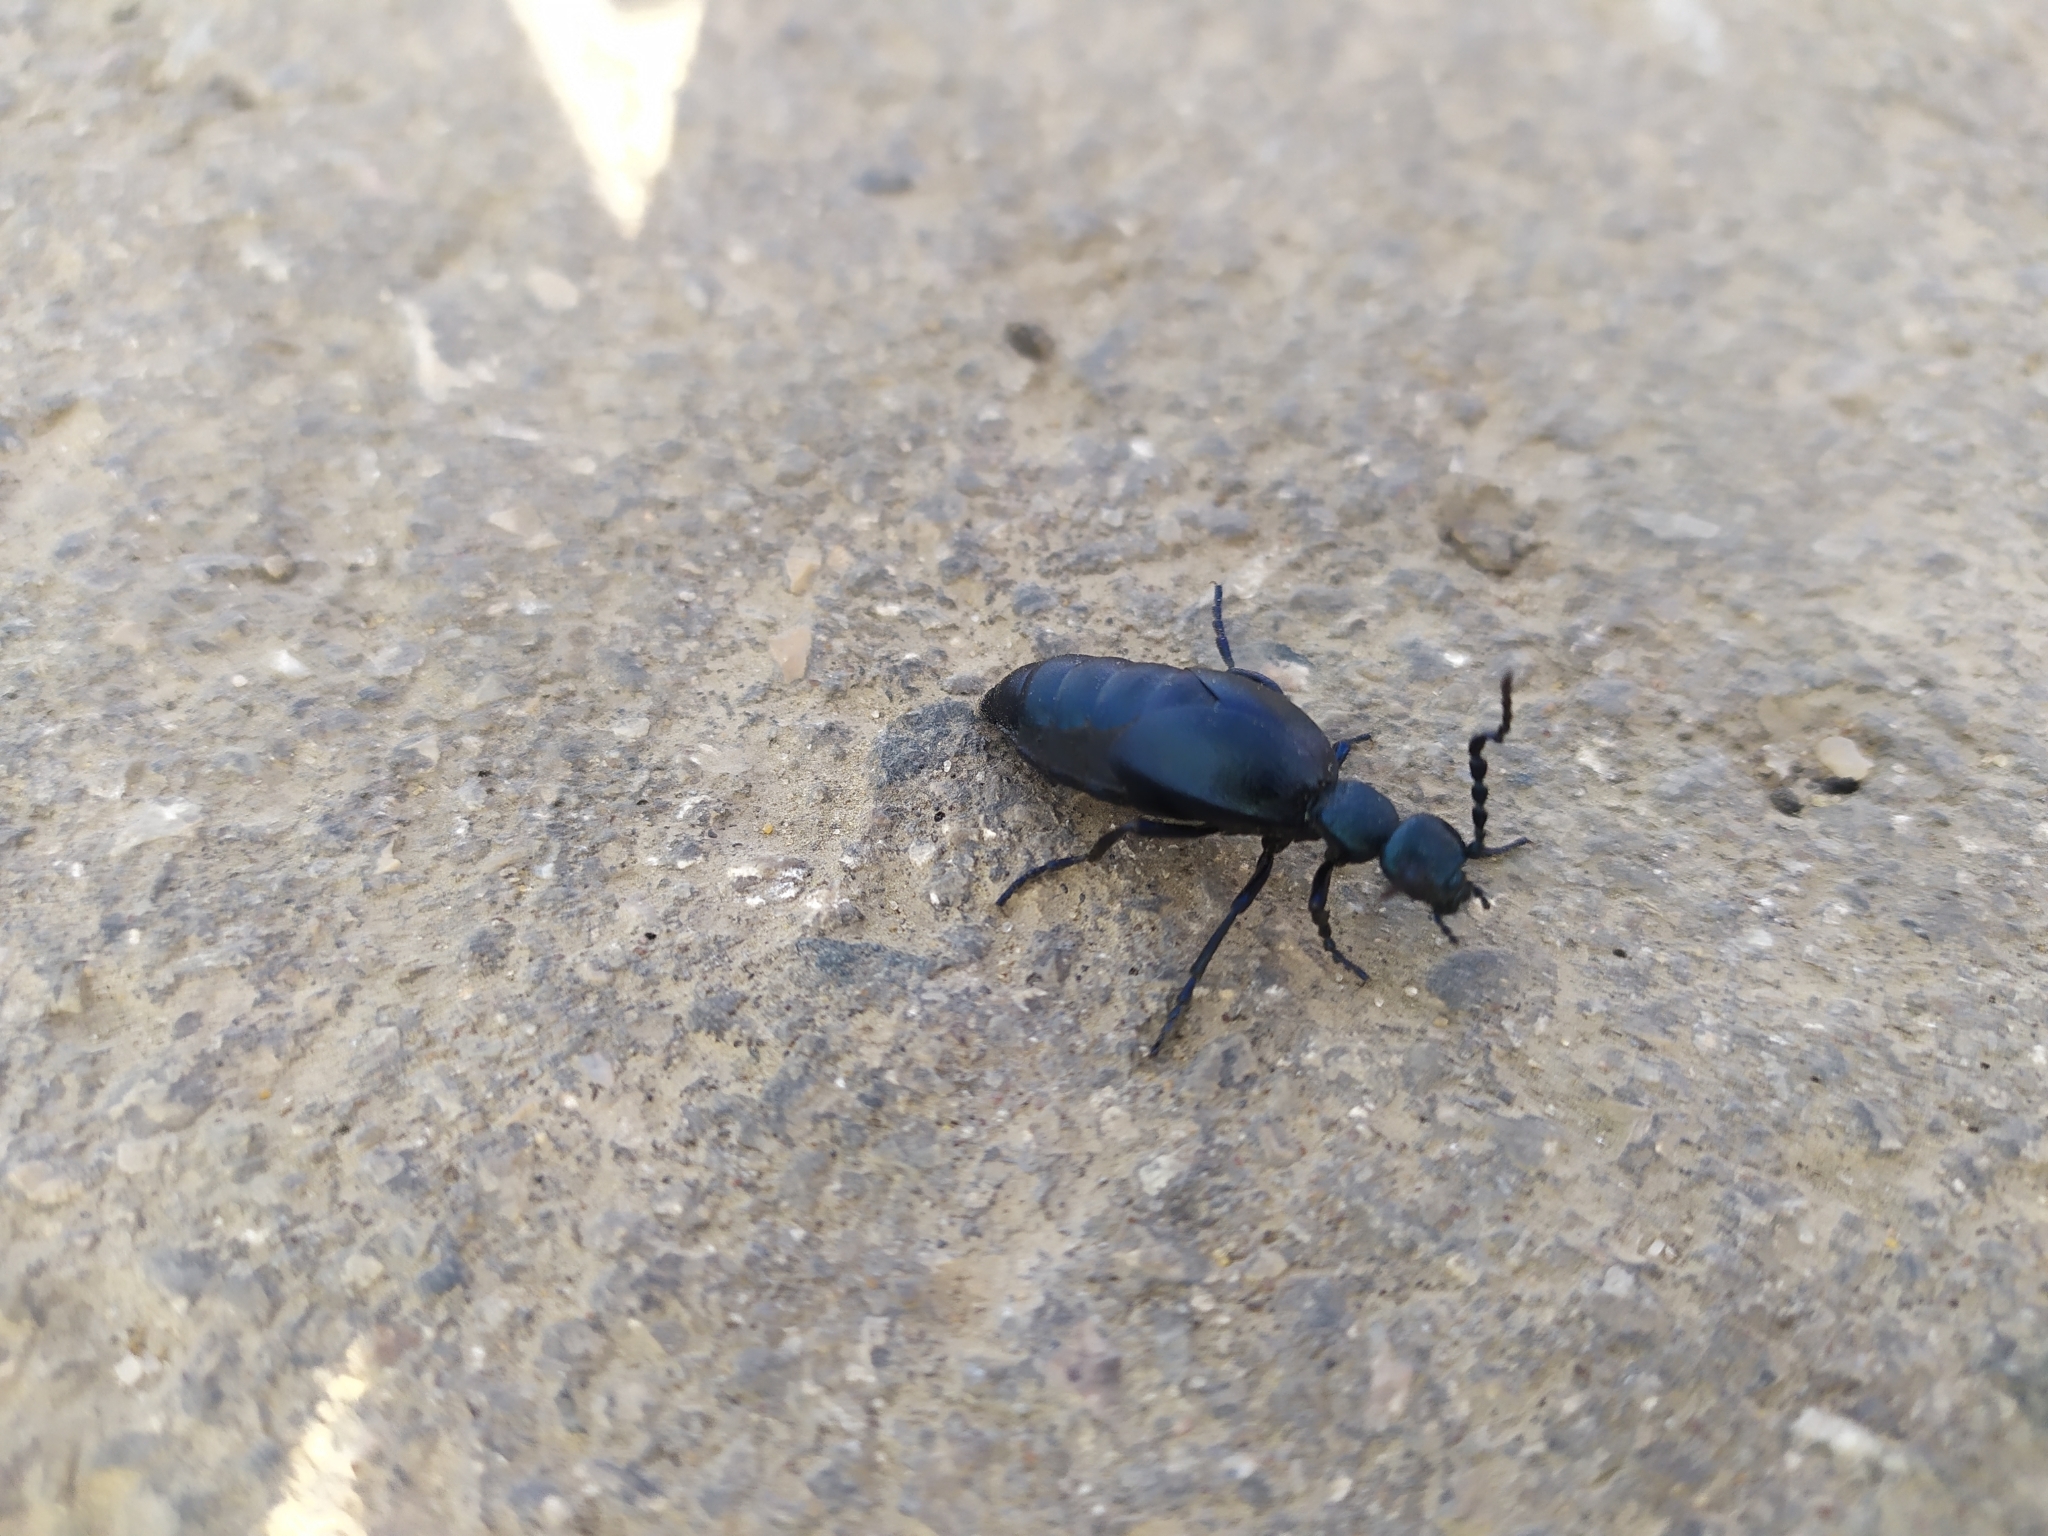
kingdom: Animalia
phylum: Arthropoda
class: Insecta
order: Coleoptera
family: Meloidae
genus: Meloe
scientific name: Meloe proscarabaeus
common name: Black oil-beetle
